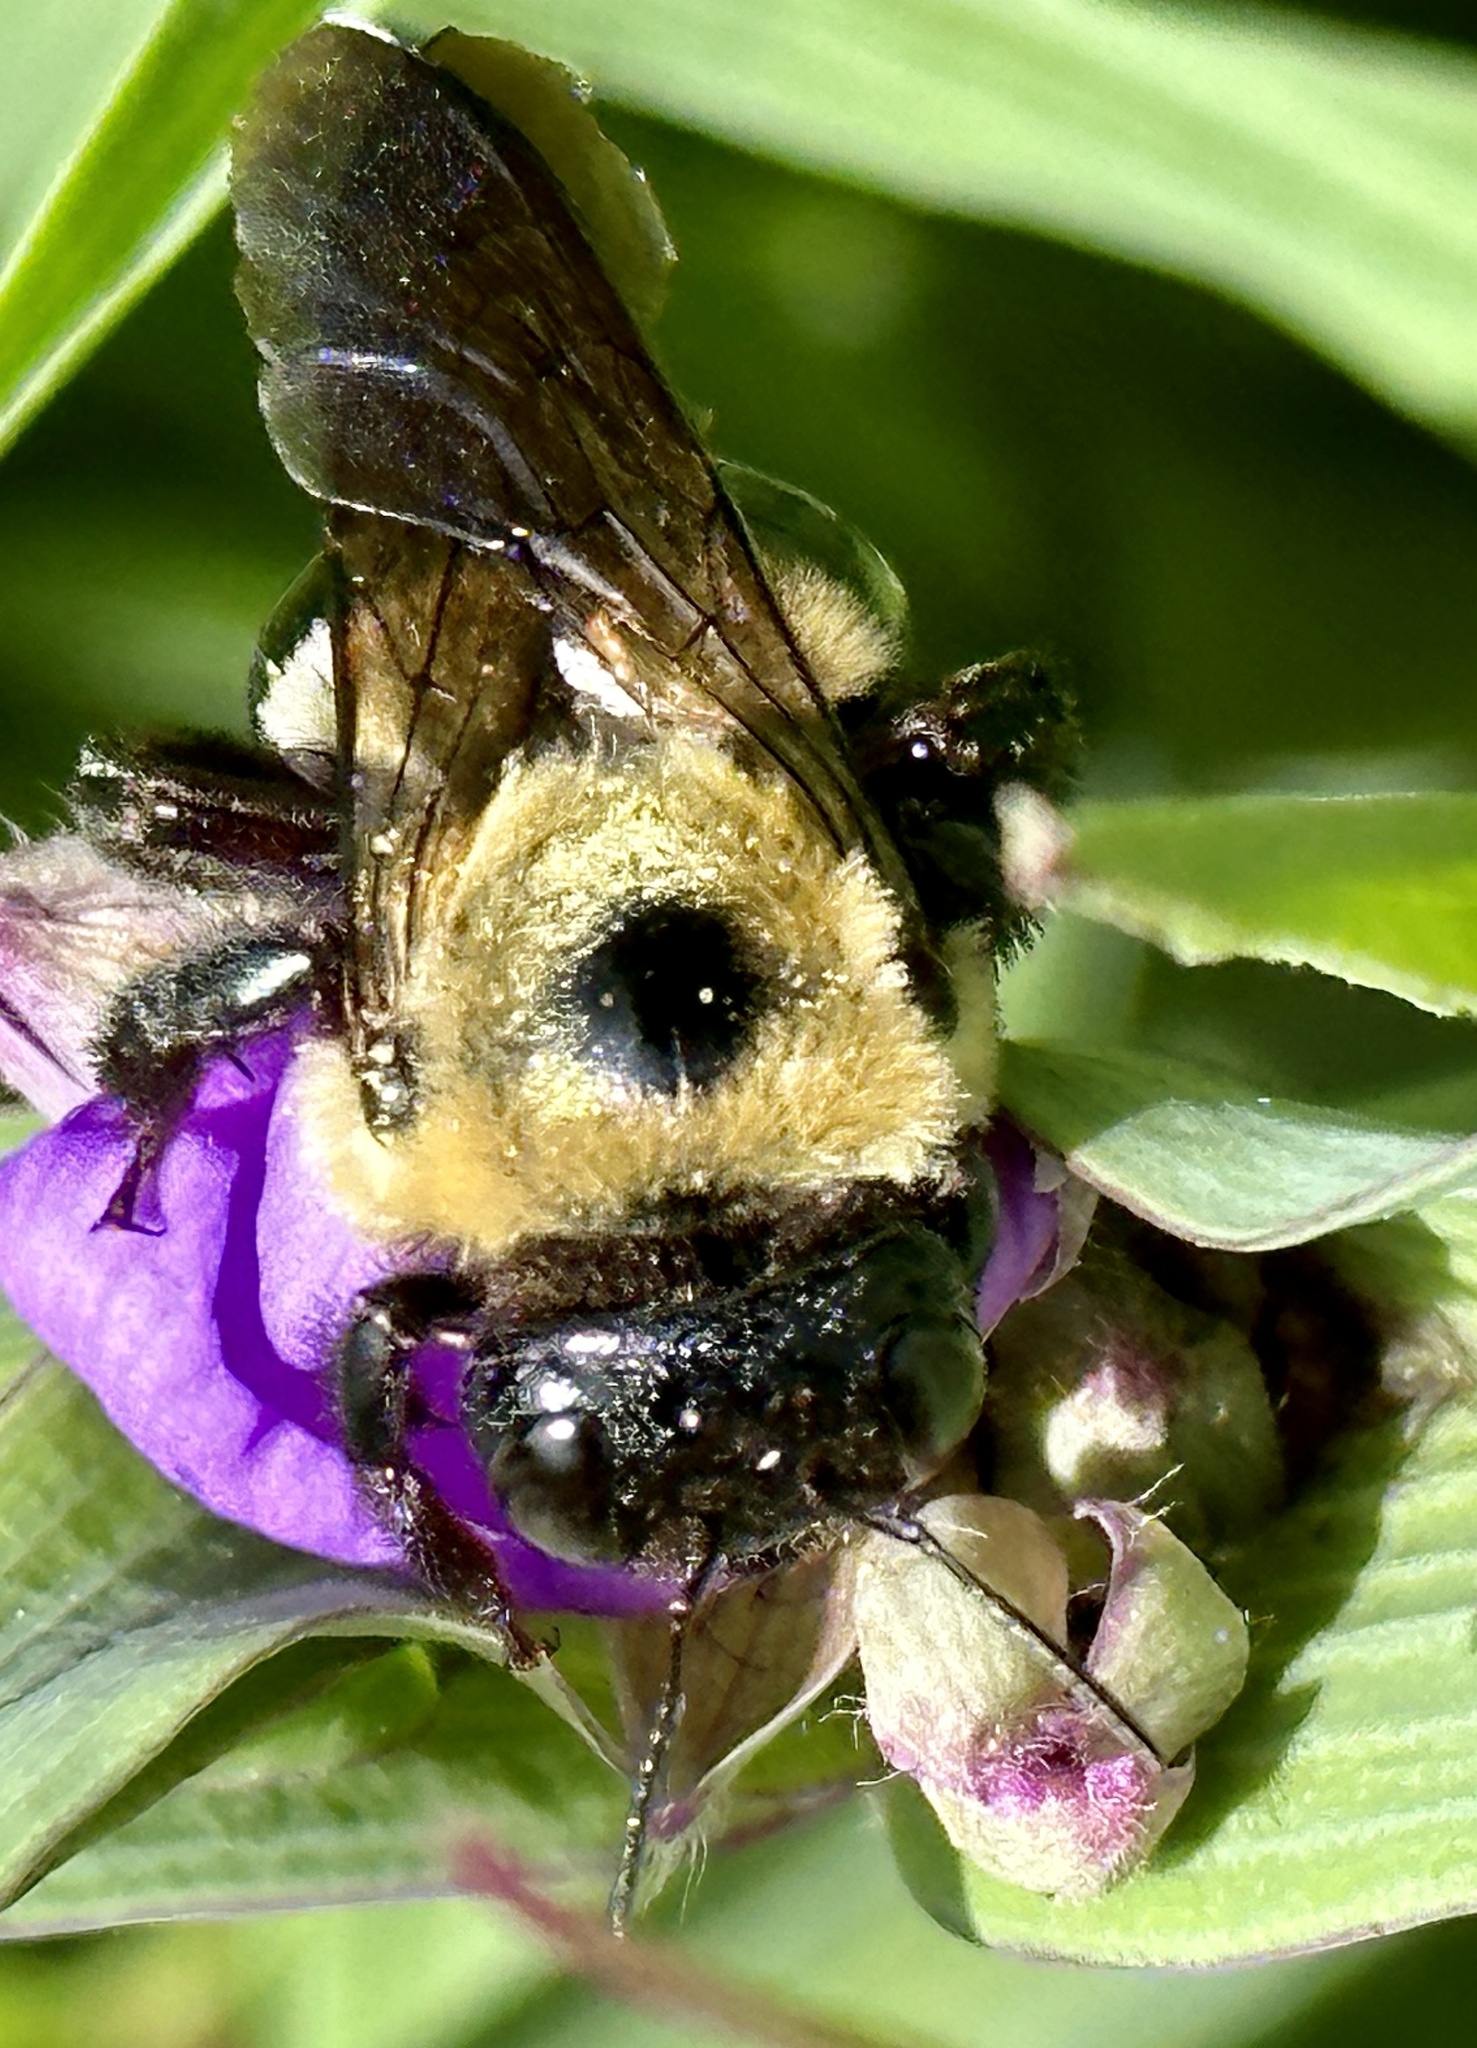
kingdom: Animalia
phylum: Arthropoda
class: Insecta
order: Hymenoptera
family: Apidae
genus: Xylocopa
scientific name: Xylocopa virginica
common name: Carpenter bee
